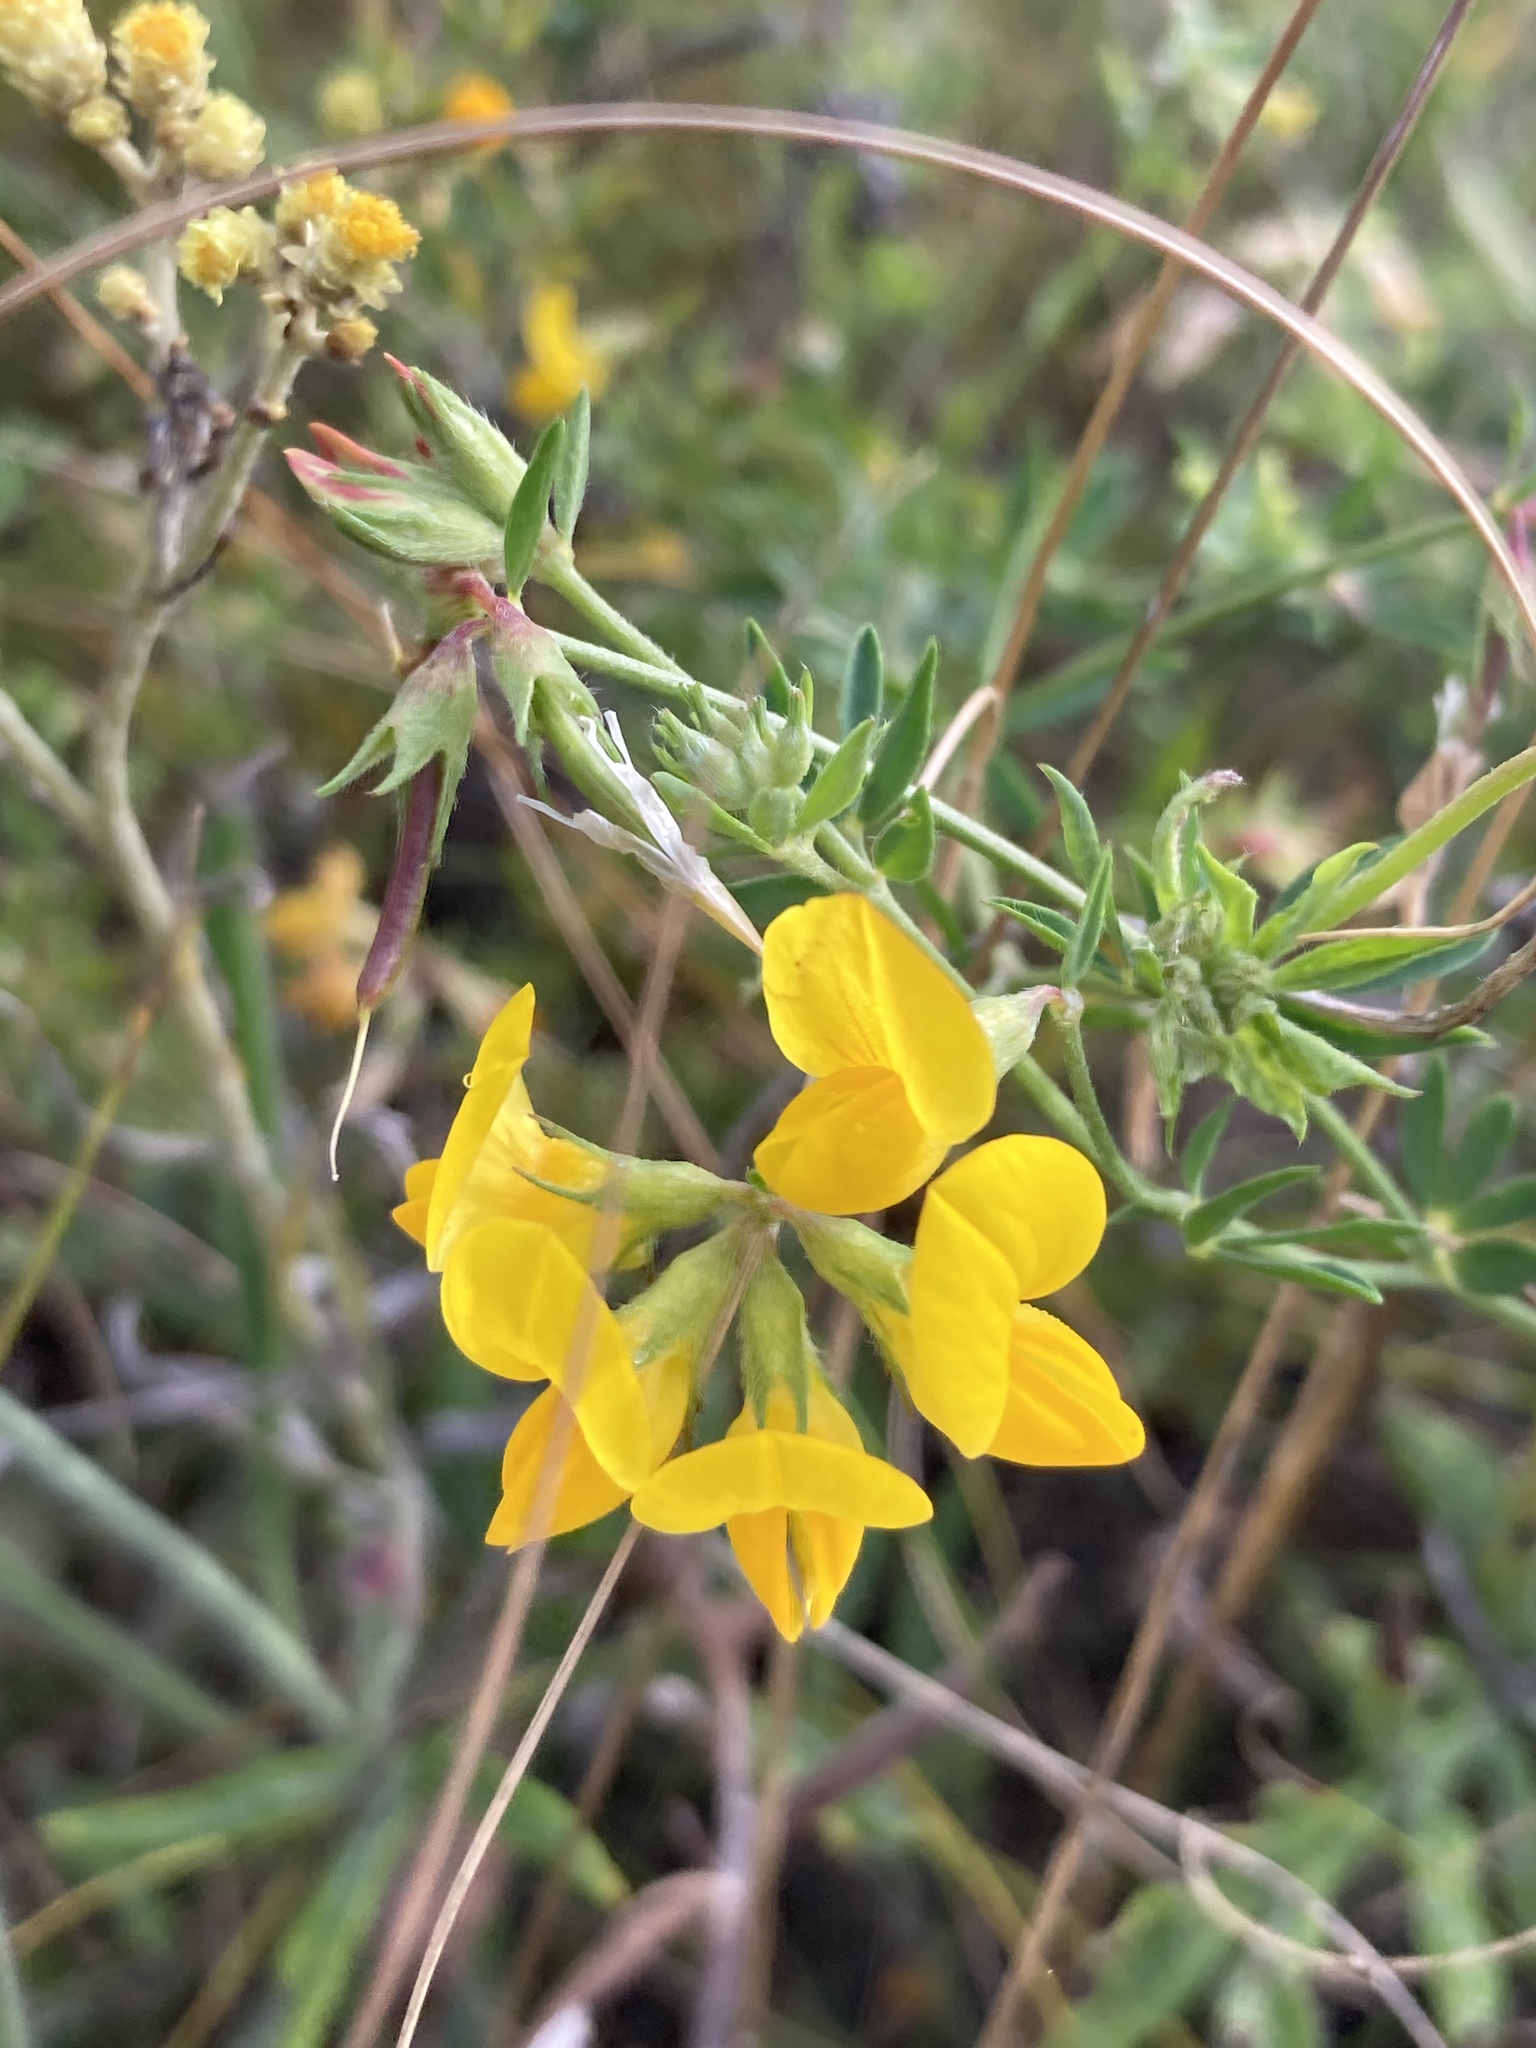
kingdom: Plantae
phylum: Tracheophyta
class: Magnoliopsida
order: Fabales
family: Fabaceae
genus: Lotus
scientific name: Lotus corniculatus
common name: Common bird's-foot-trefoil
